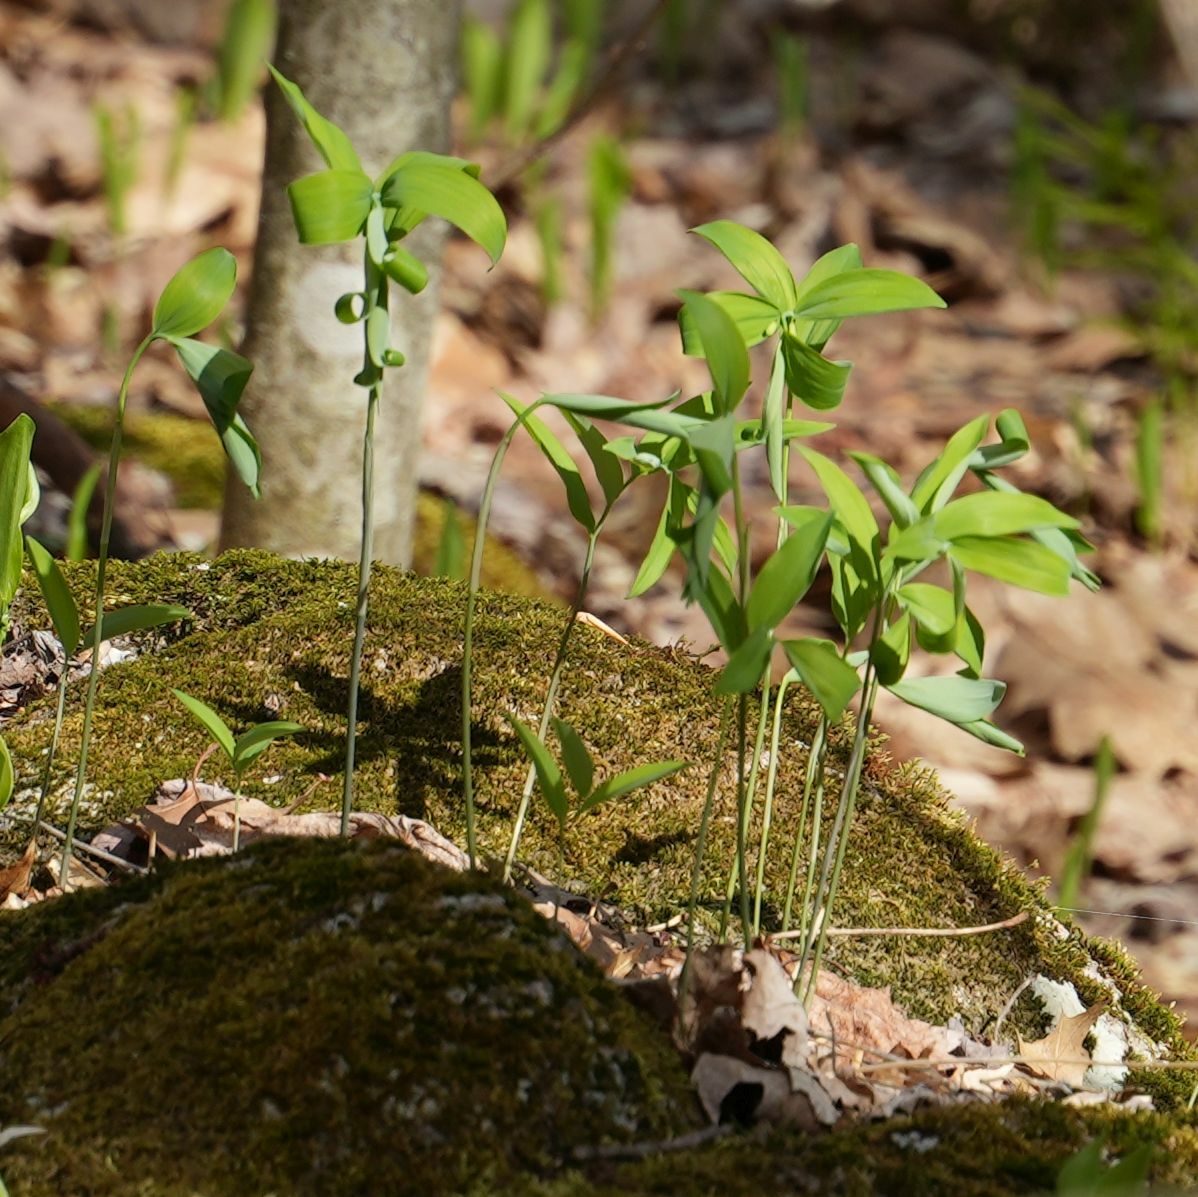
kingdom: Plantae
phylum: Tracheophyta
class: Liliopsida
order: Asparagales
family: Asparagaceae
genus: Polygonatum
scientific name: Polygonatum pubescens
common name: Downy solomon's seal
